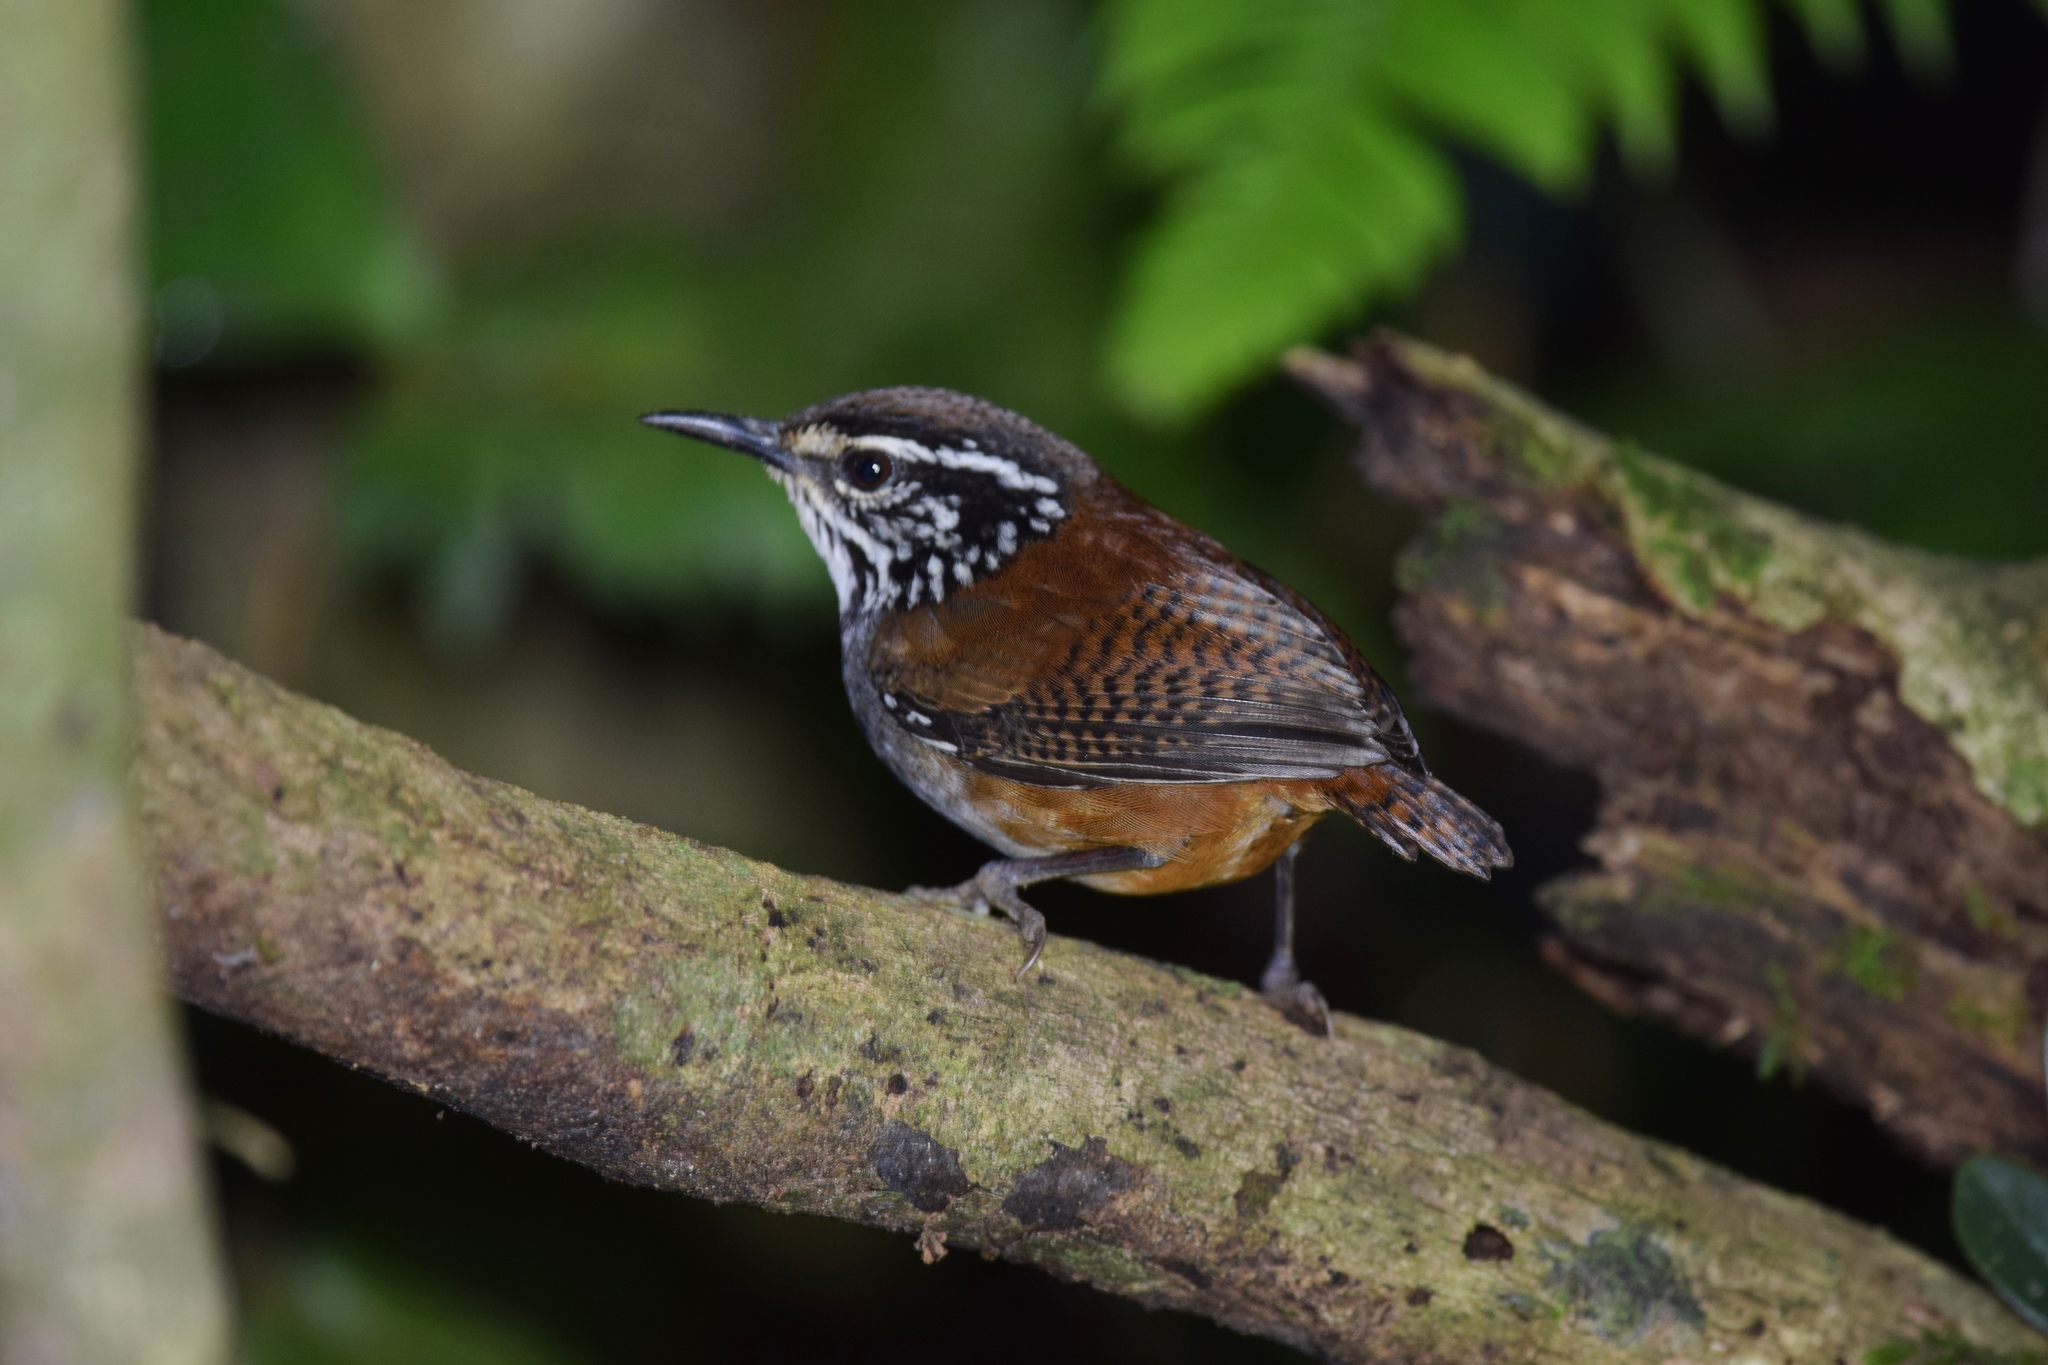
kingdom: Animalia
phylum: Chordata
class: Aves
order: Passeriformes
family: Troglodytidae
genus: Henicorhina
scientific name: Henicorhina leucosticta
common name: White-breasted wood-wren
